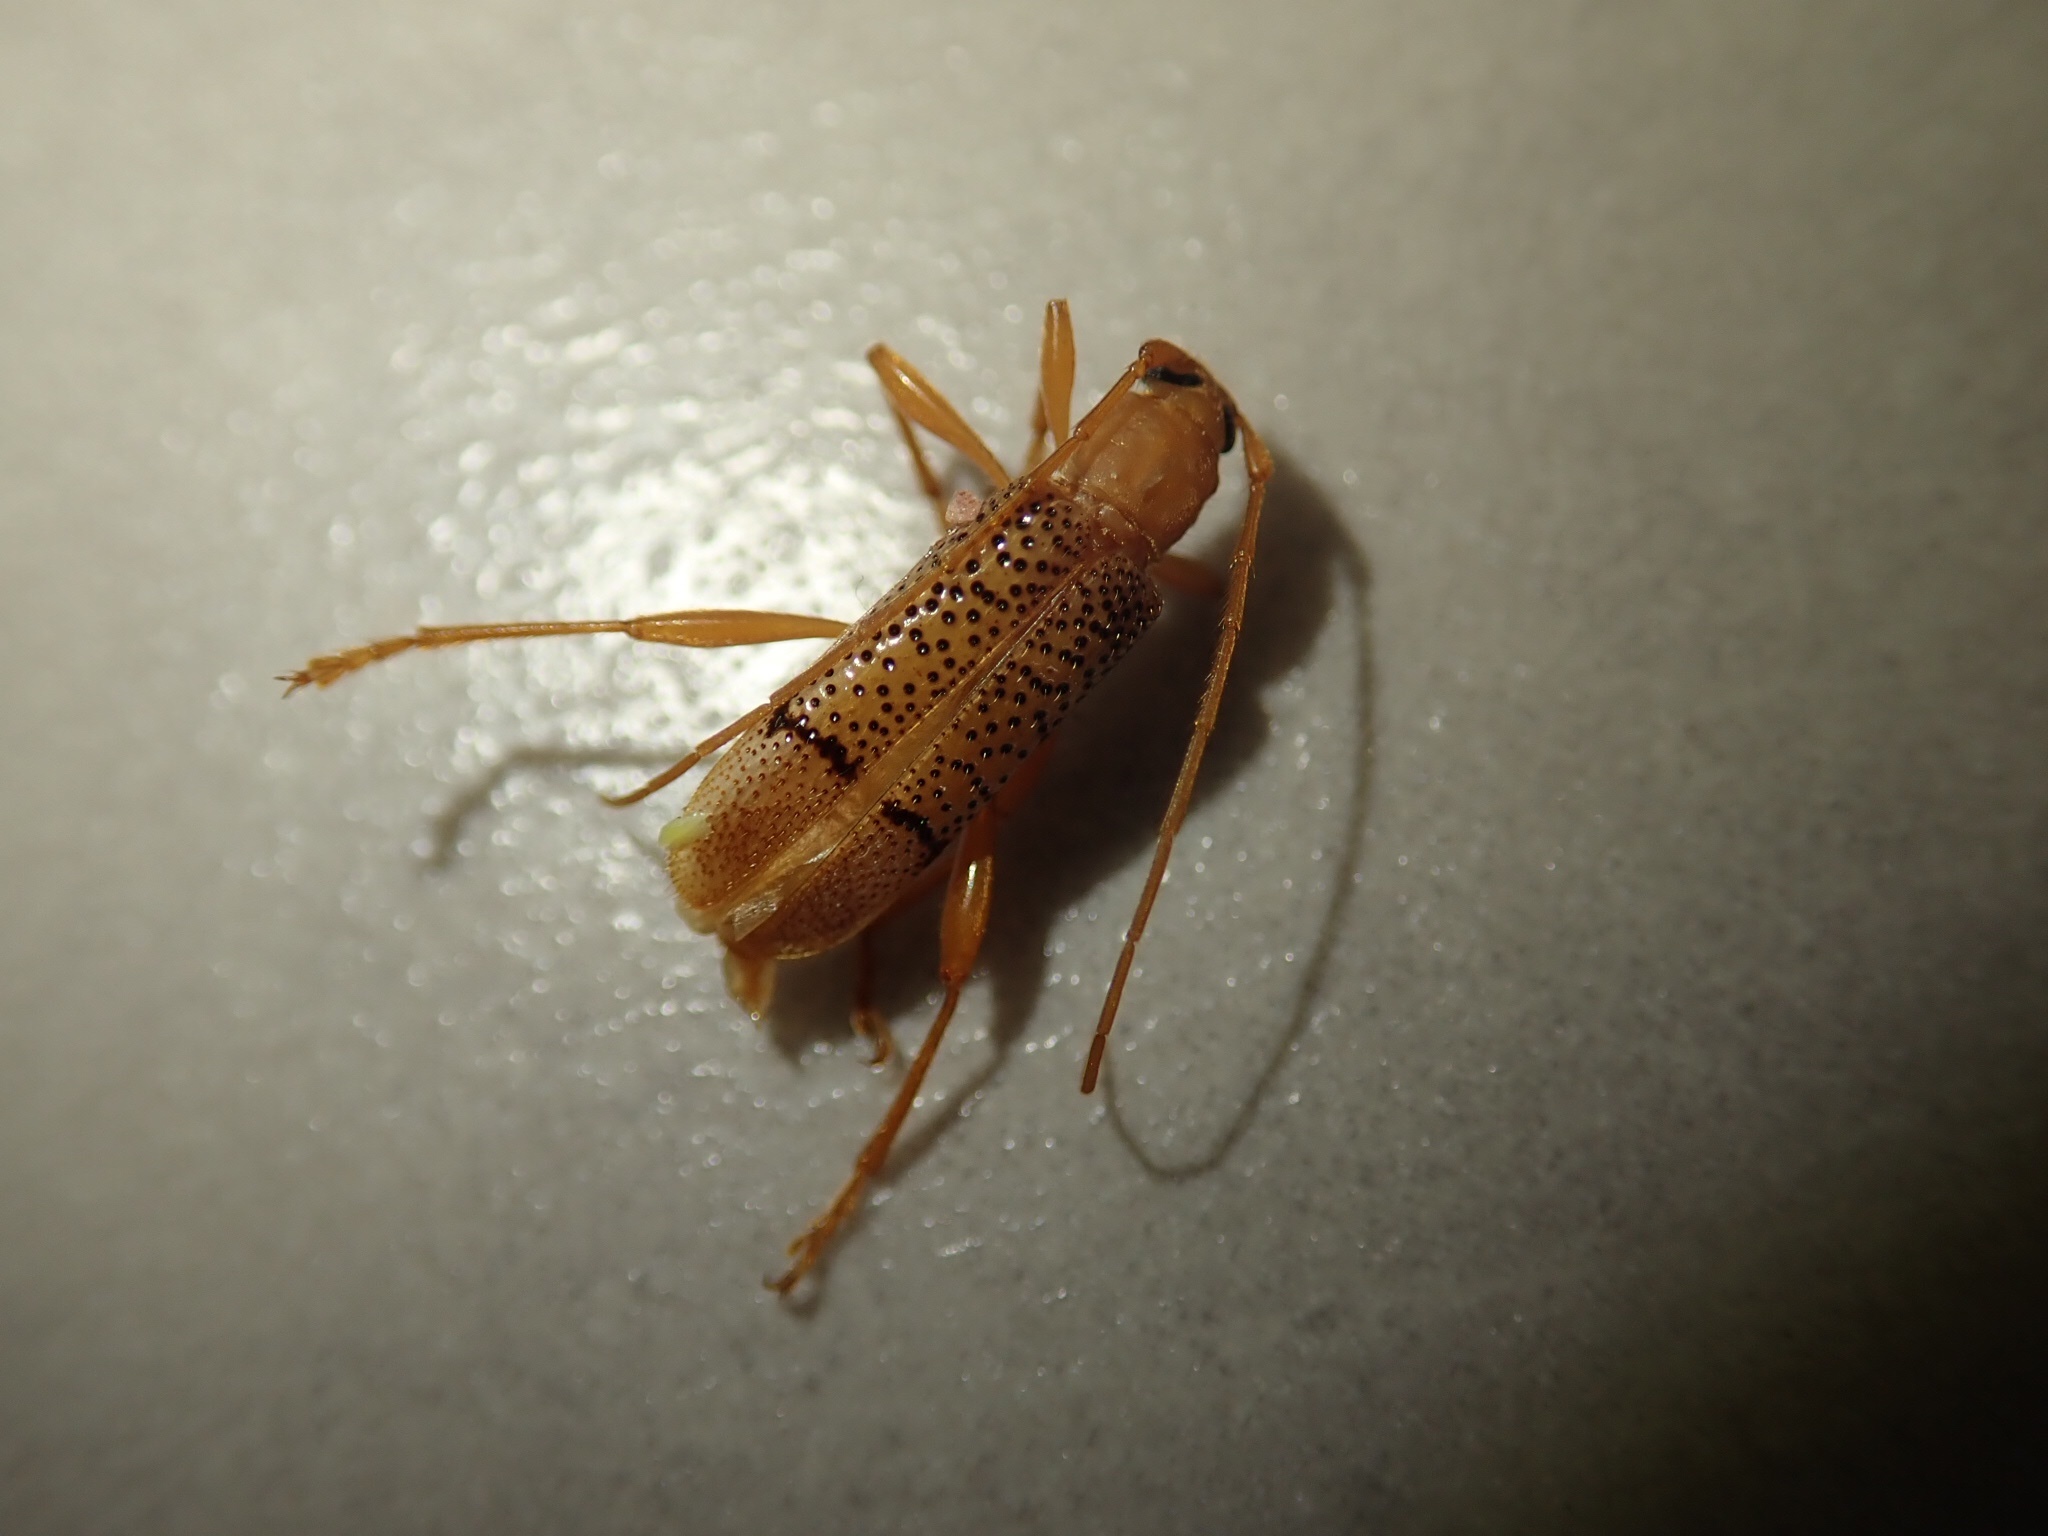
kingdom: Animalia
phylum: Arthropoda
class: Insecta
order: Coleoptera
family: Cerambycidae
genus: Xuthodes
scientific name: Xuthodes punctipennis
